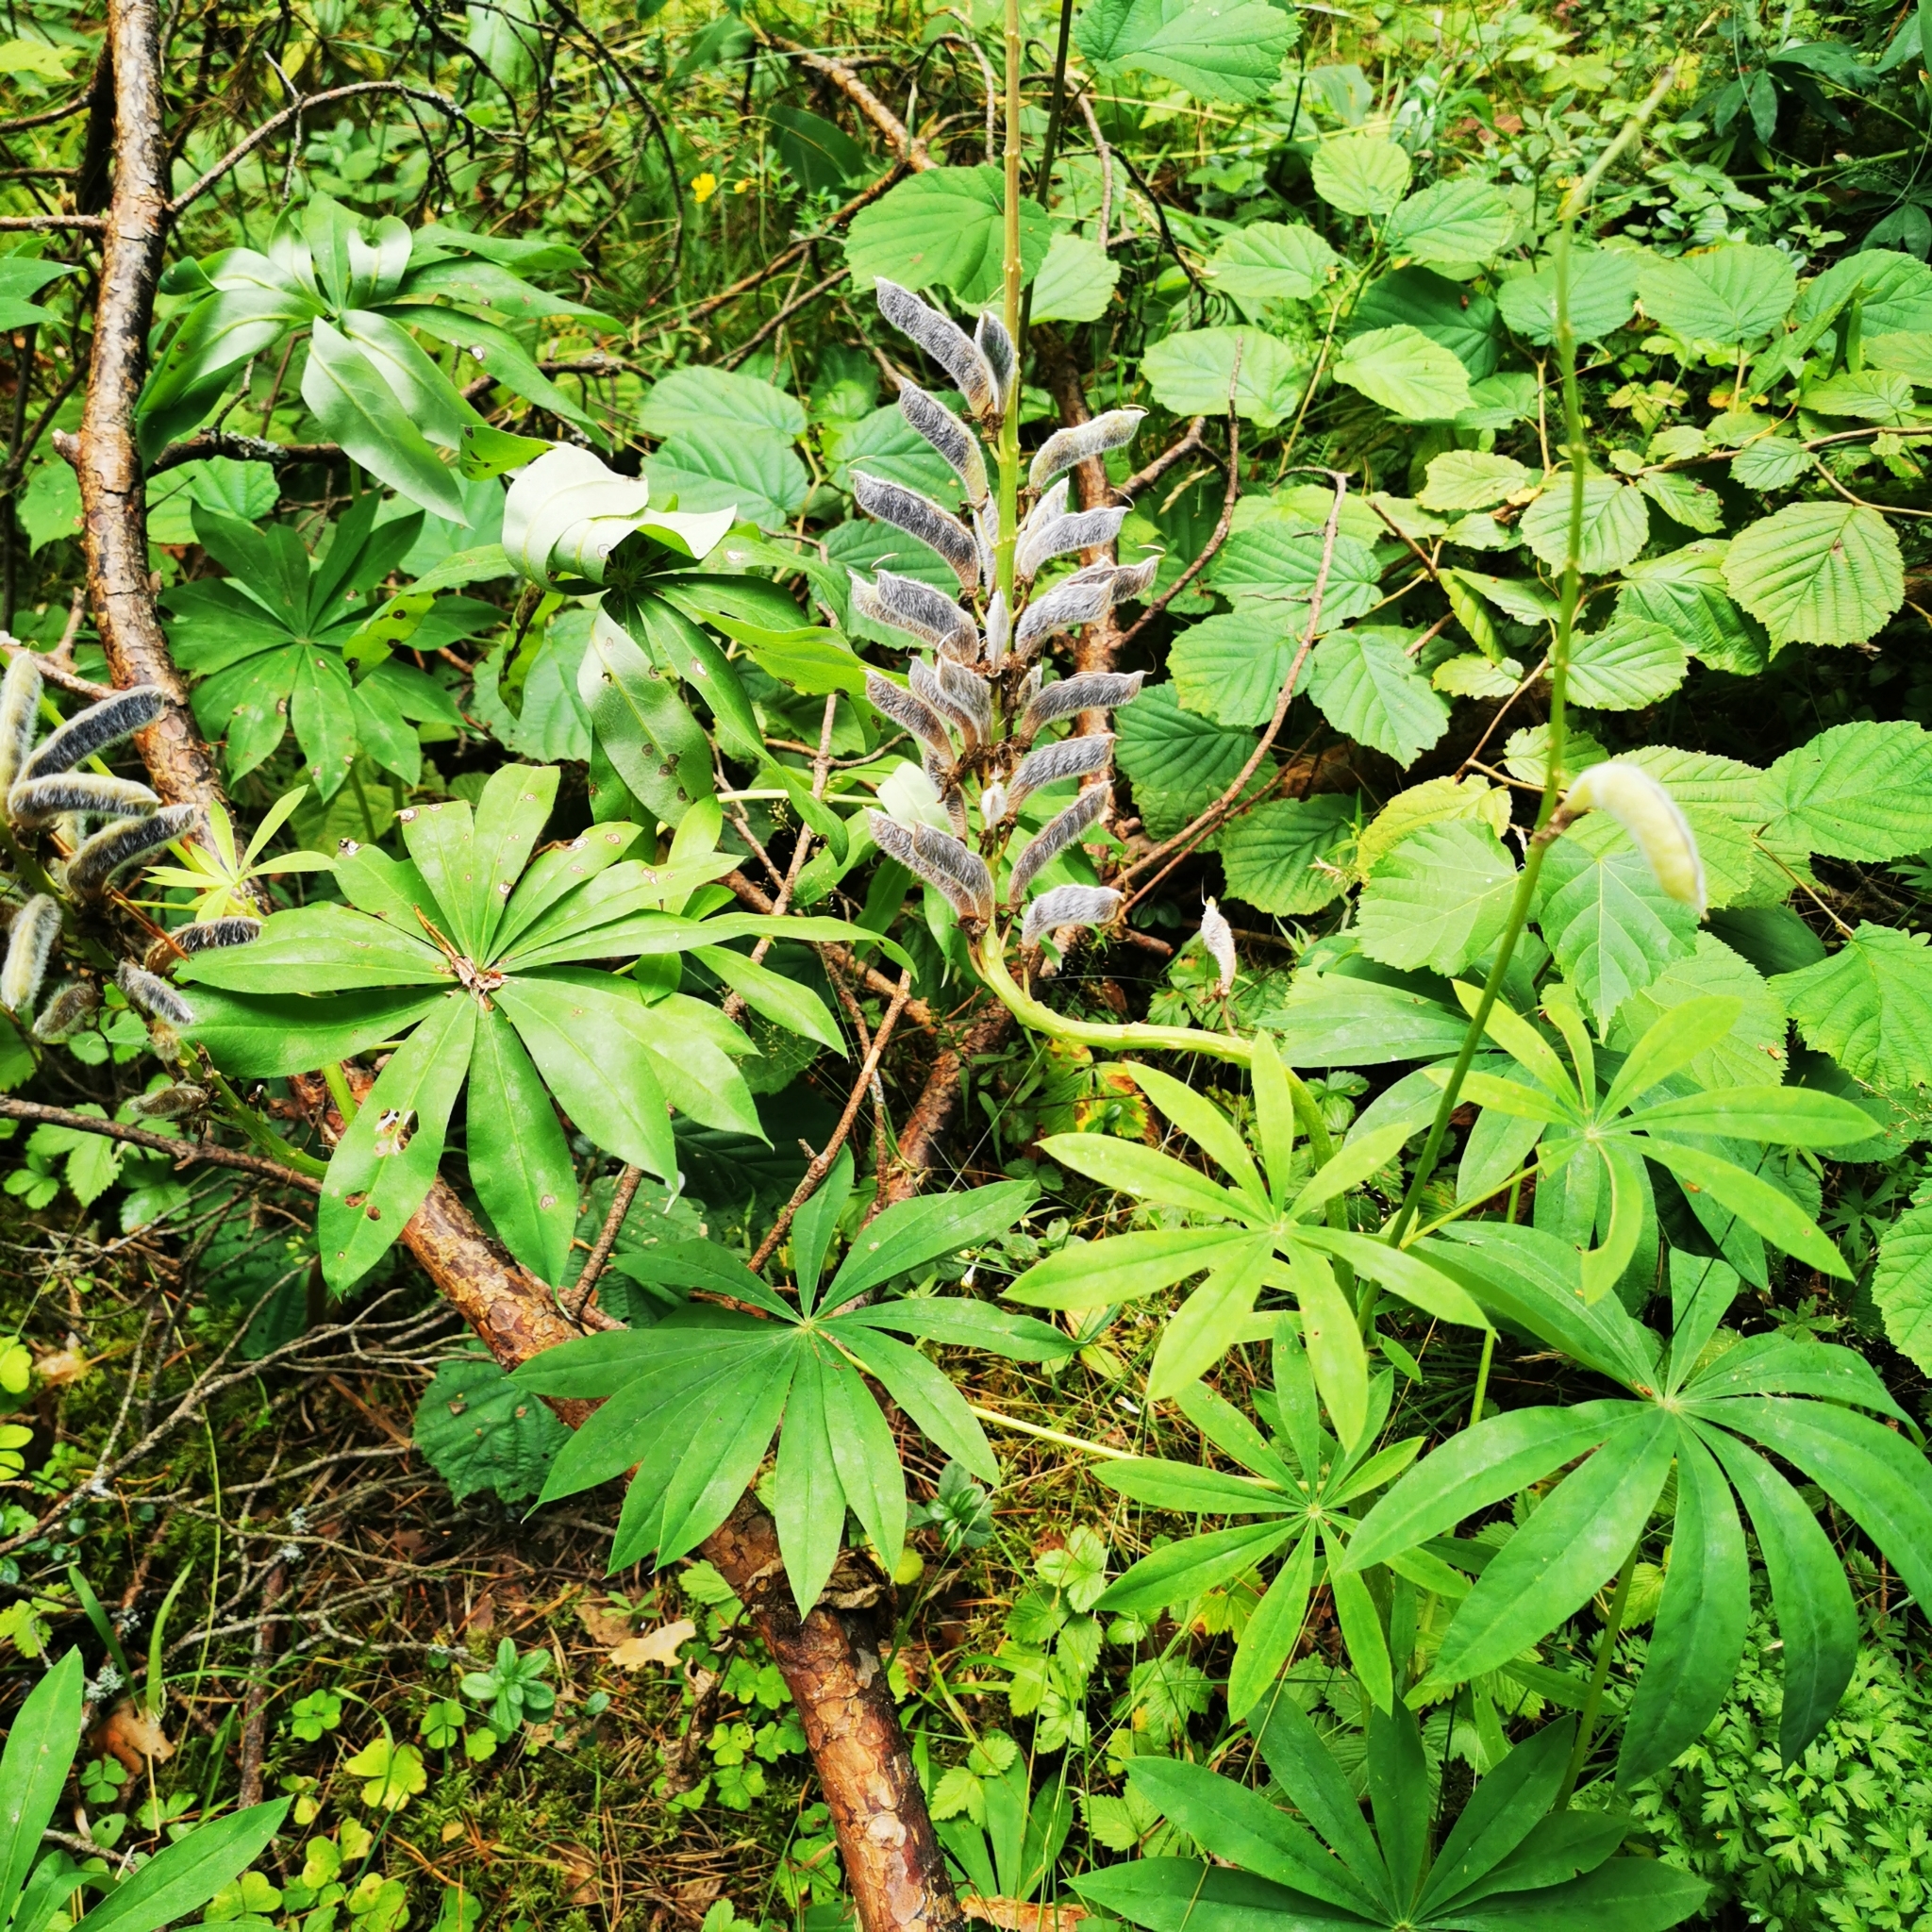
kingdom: Plantae
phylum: Tracheophyta
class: Magnoliopsida
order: Fabales
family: Fabaceae
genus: Lupinus
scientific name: Lupinus polyphyllus
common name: Garden lupin
